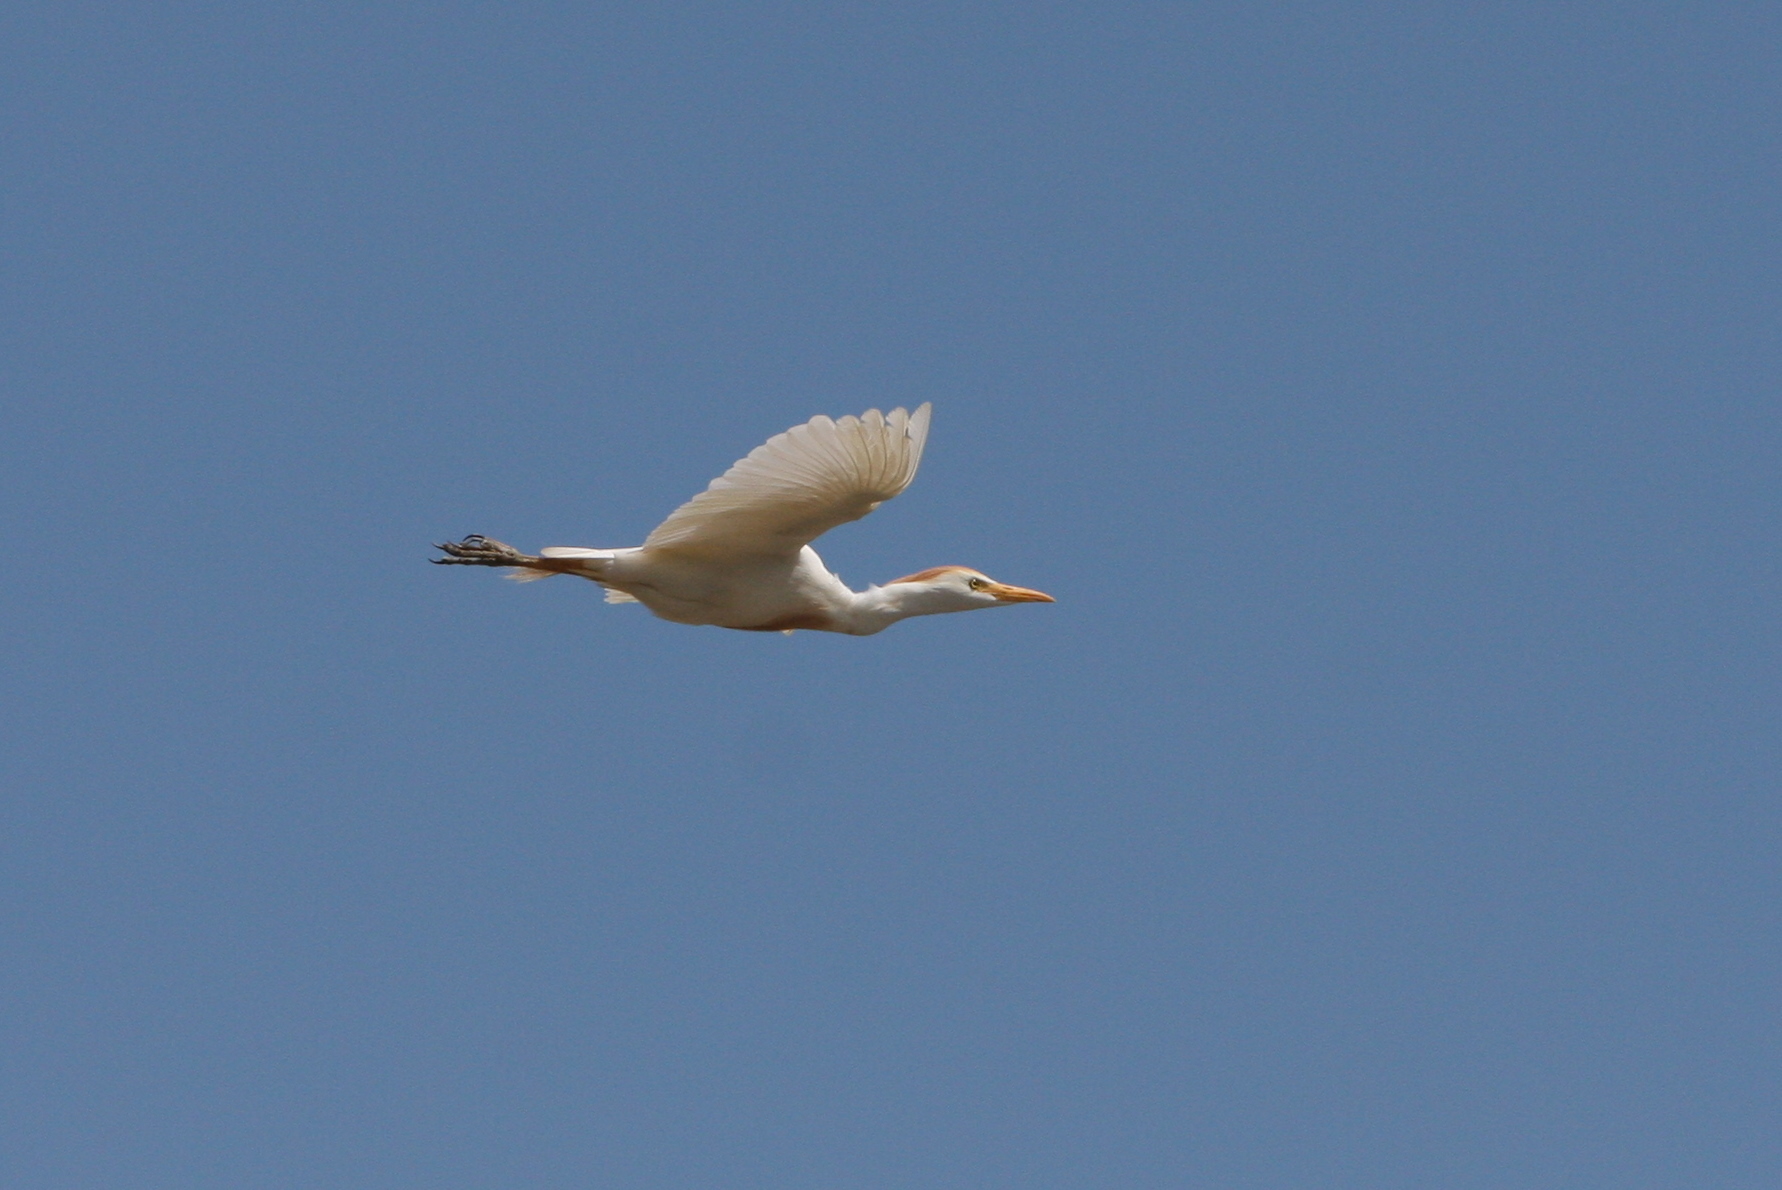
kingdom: Animalia
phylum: Chordata
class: Aves
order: Pelecaniformes
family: Ardeidae
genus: Bubulcus
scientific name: Bubulcus ibis
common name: Cattle egret
